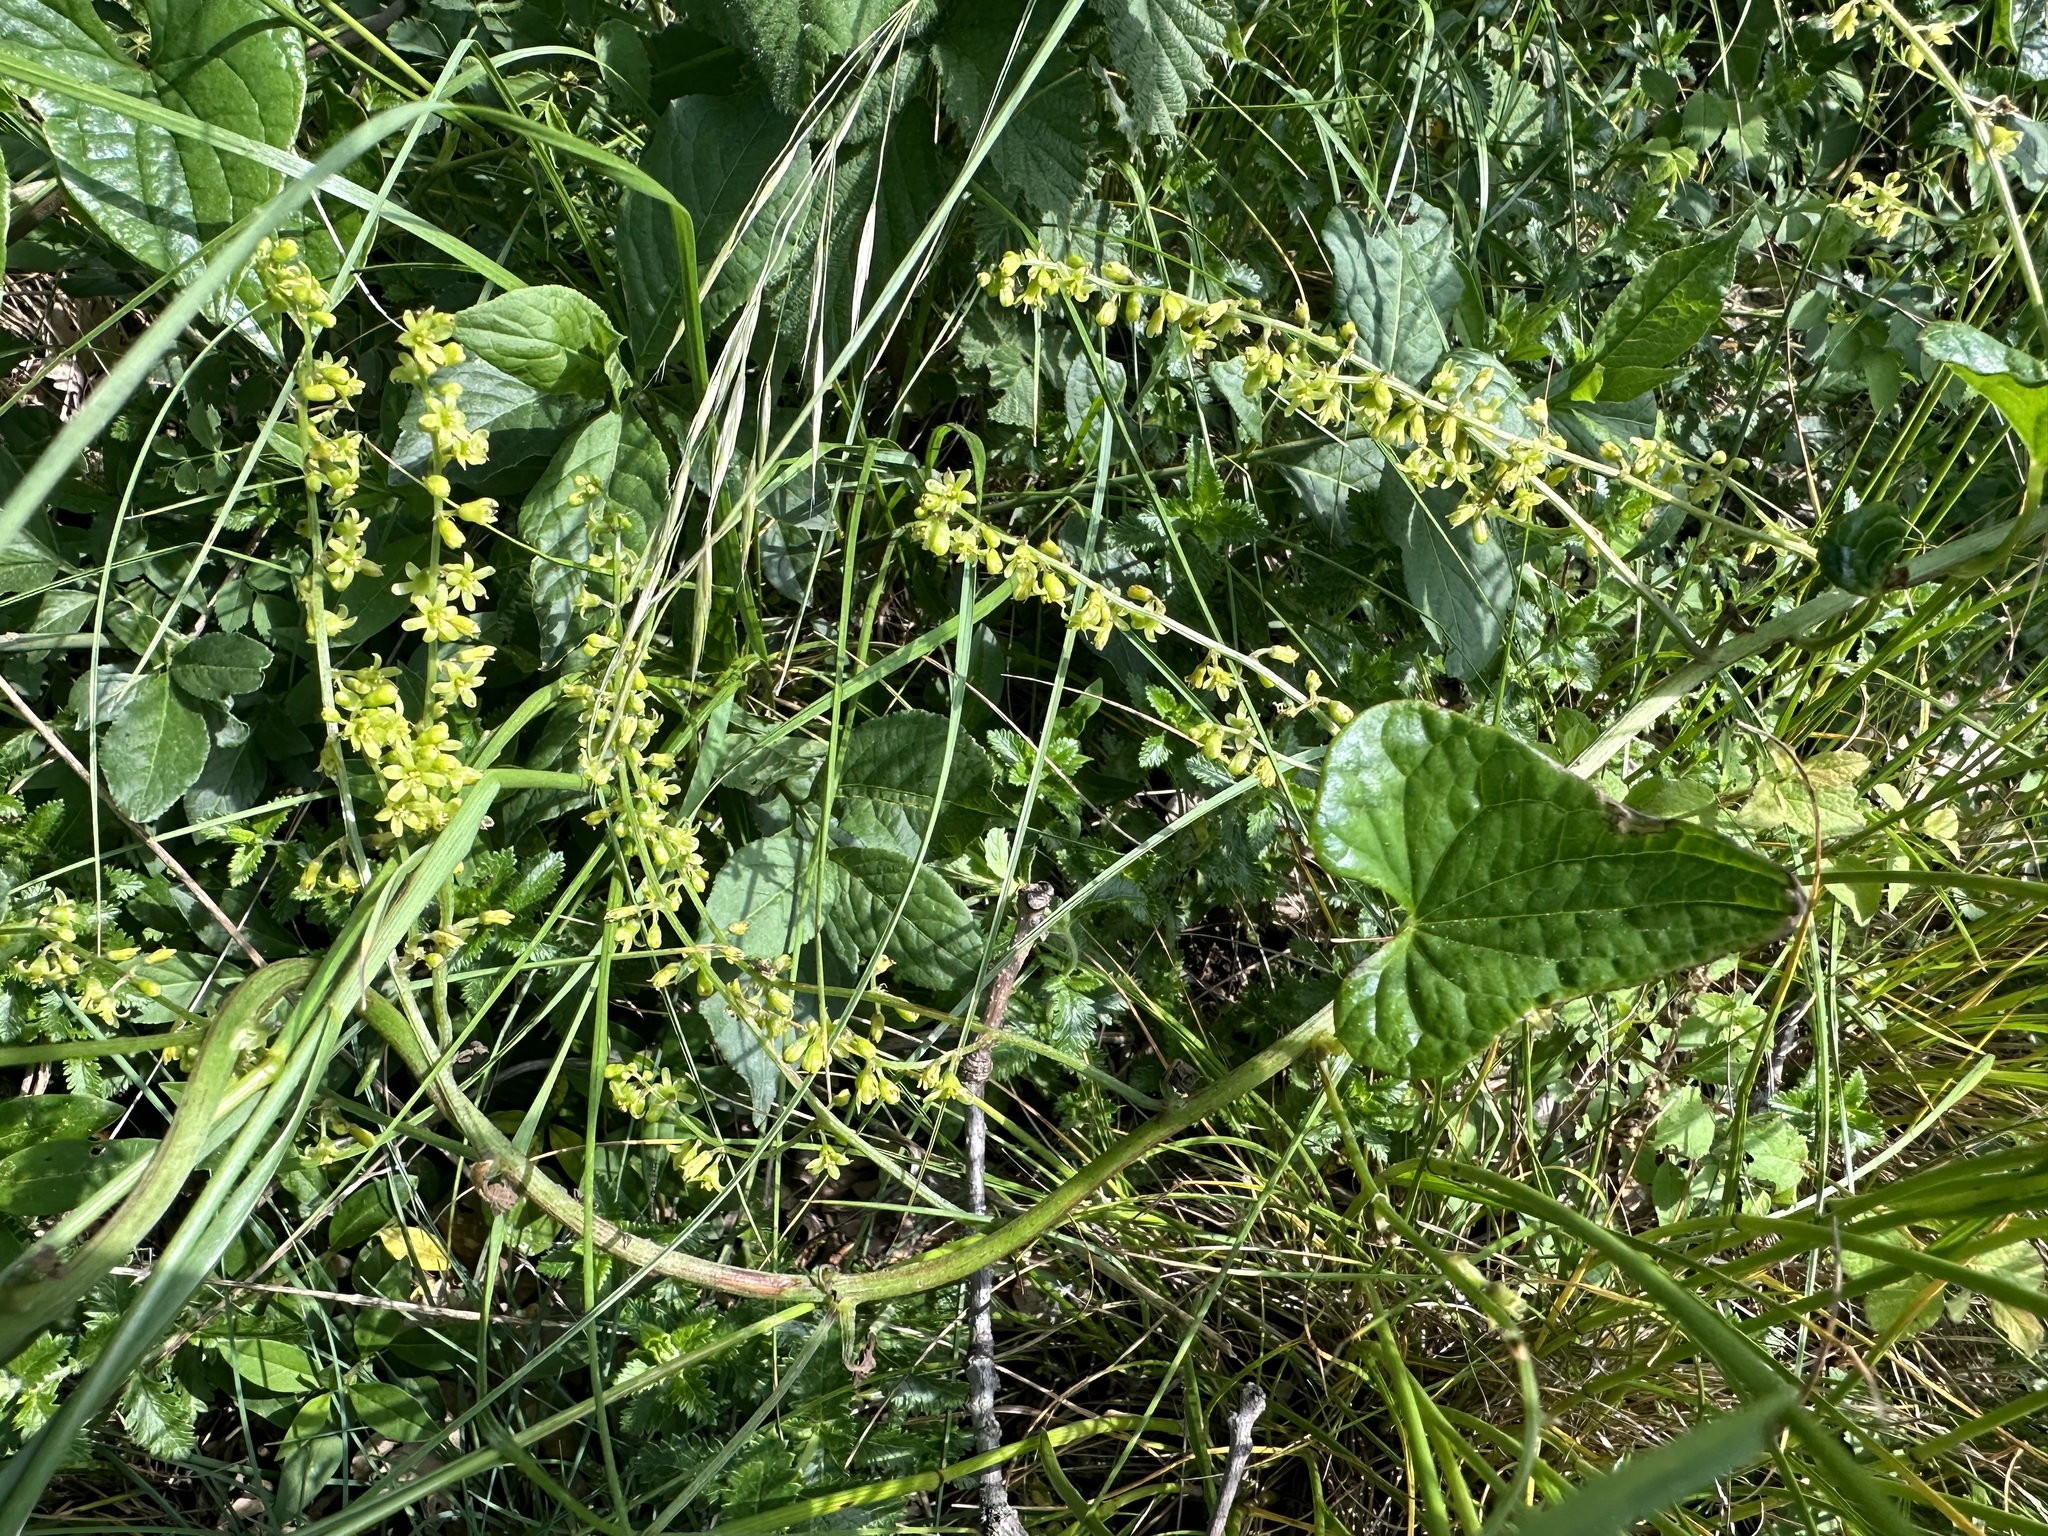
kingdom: Plantae
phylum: Tracheophyta
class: Liliopsida
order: Dioscoreales
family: Dioscoreaceae
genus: Dioscorea
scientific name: Dioscorea communis
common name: Black-bindweed
